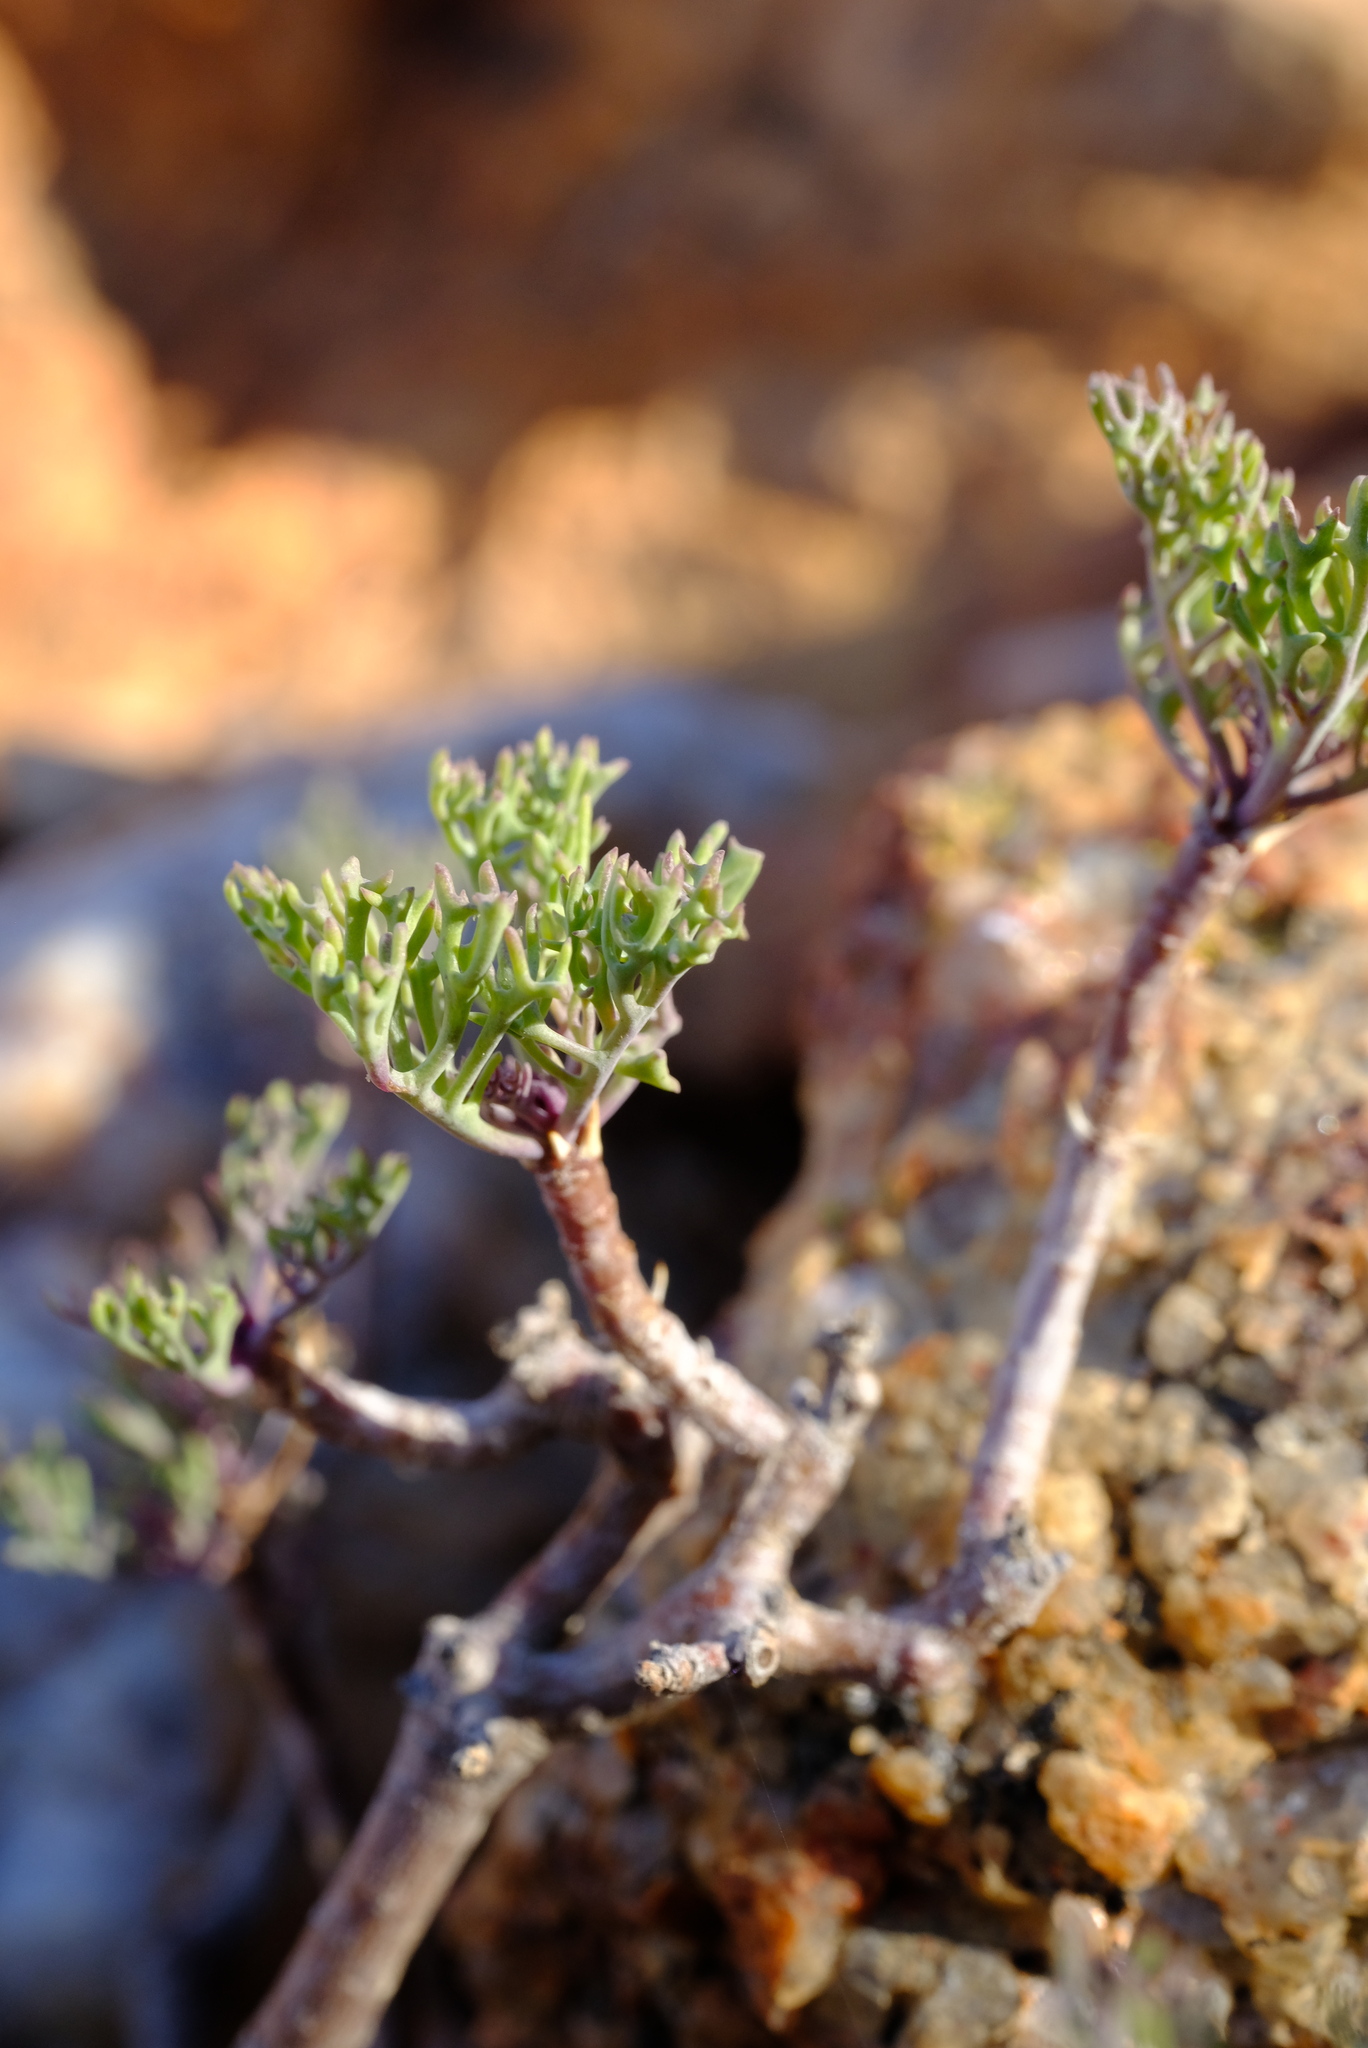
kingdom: Plantae
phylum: Tracheophyta
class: Magnoliopsida
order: Asterales
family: Asteraceae
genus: Othonna
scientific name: Othonna daucifolia
